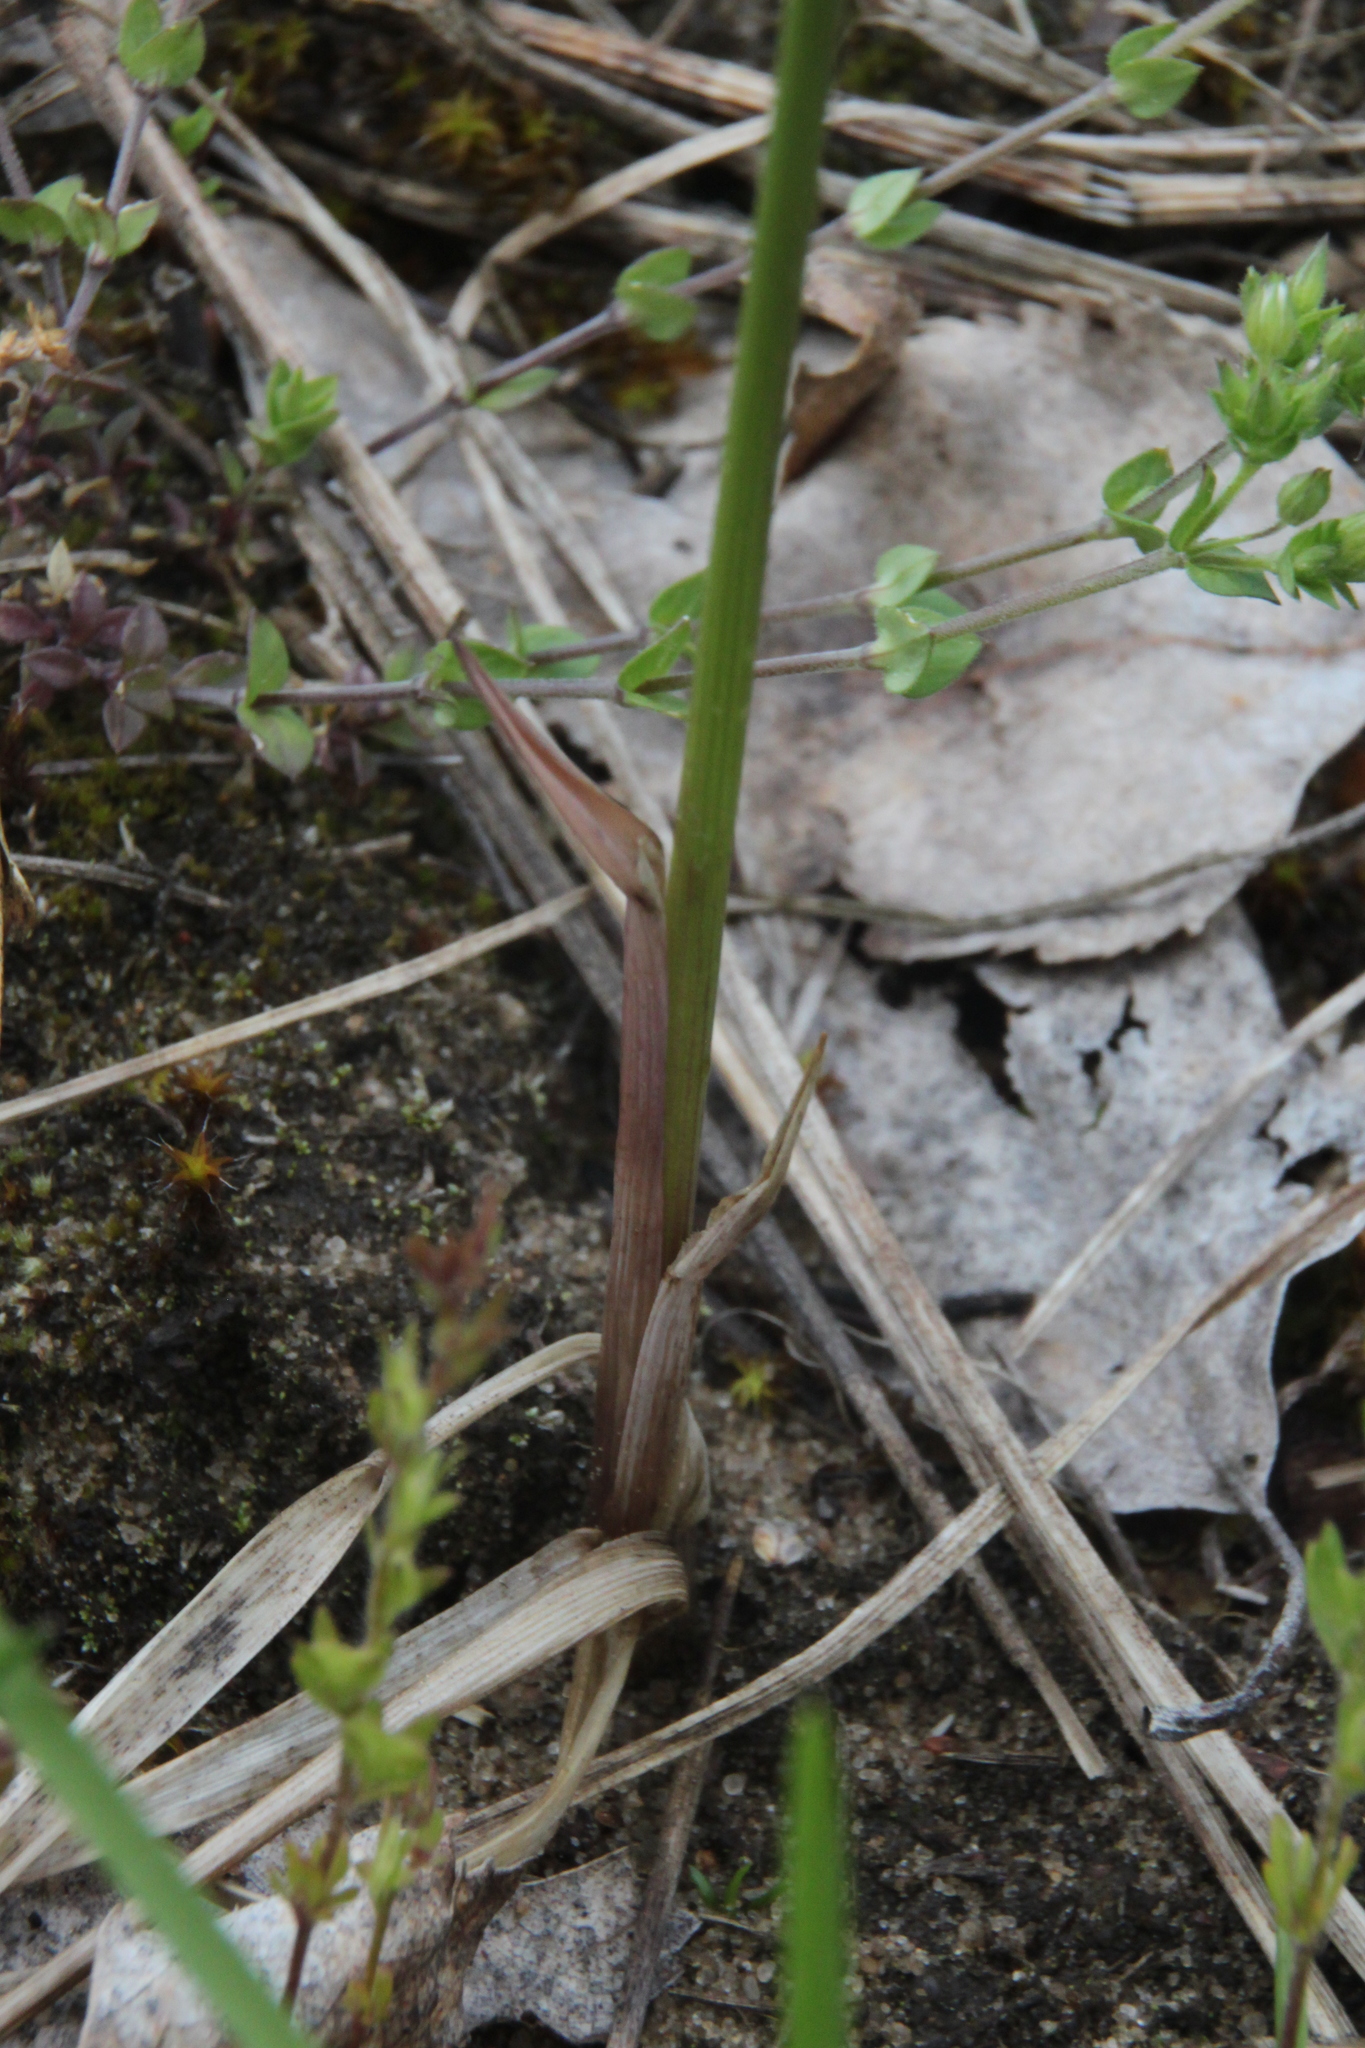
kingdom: Plantae
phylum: Tracheophyta
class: Liliopsida
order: Poales
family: Poaceae
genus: Anthoxanthum
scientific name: Anthoxanthum nitens
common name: Holy grass
